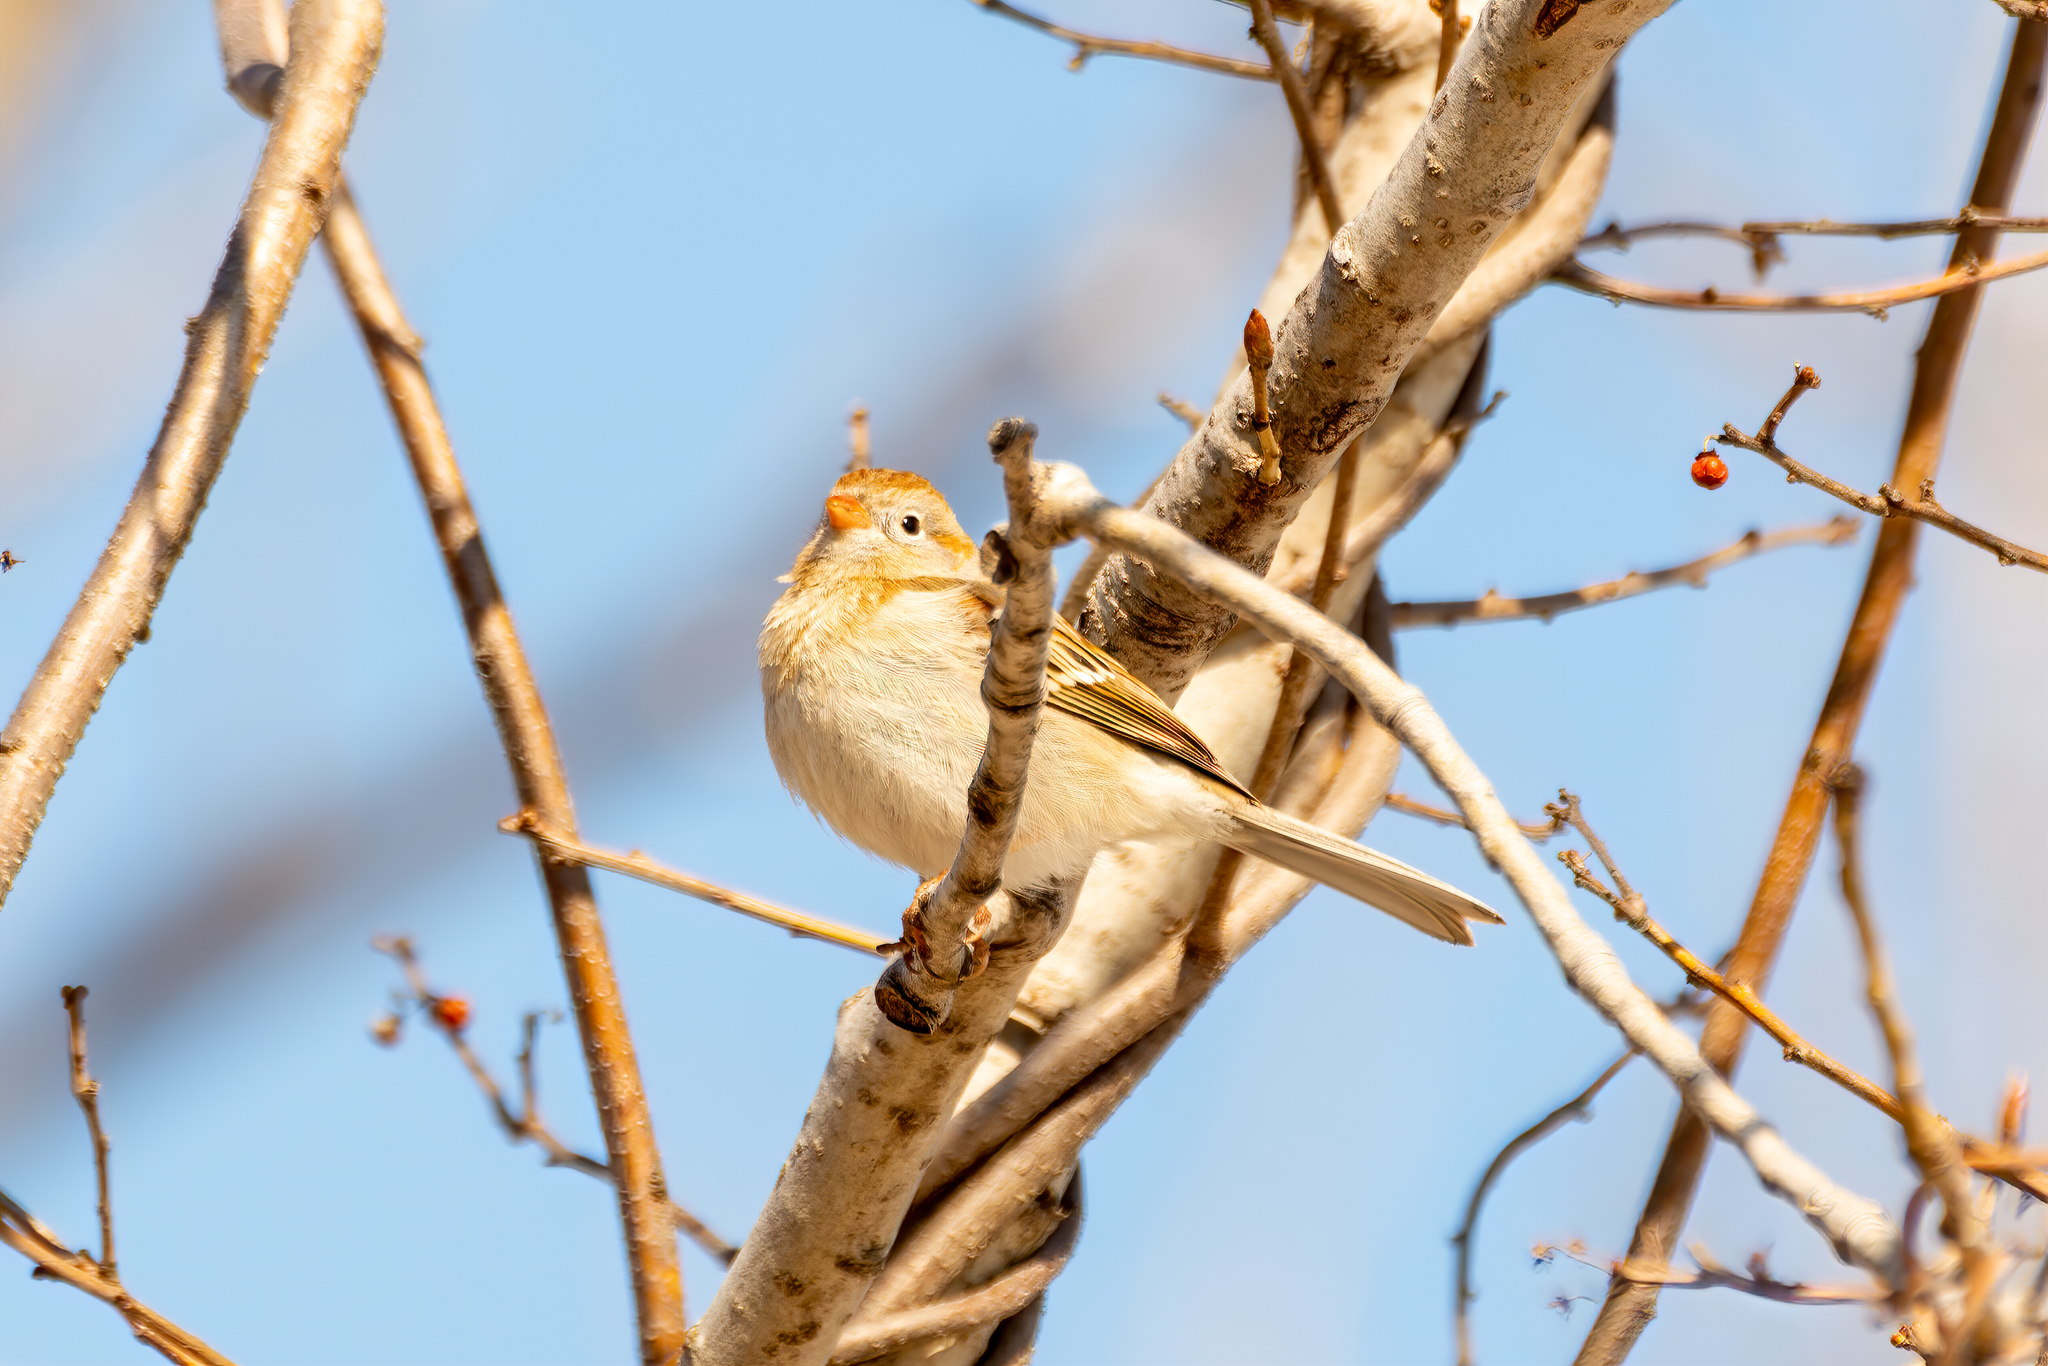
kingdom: Animalia
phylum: Chordata
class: Aves
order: Passeriformes
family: Passerellidae
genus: Spizella
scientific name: Spizella pusilla
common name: Field sparrow
